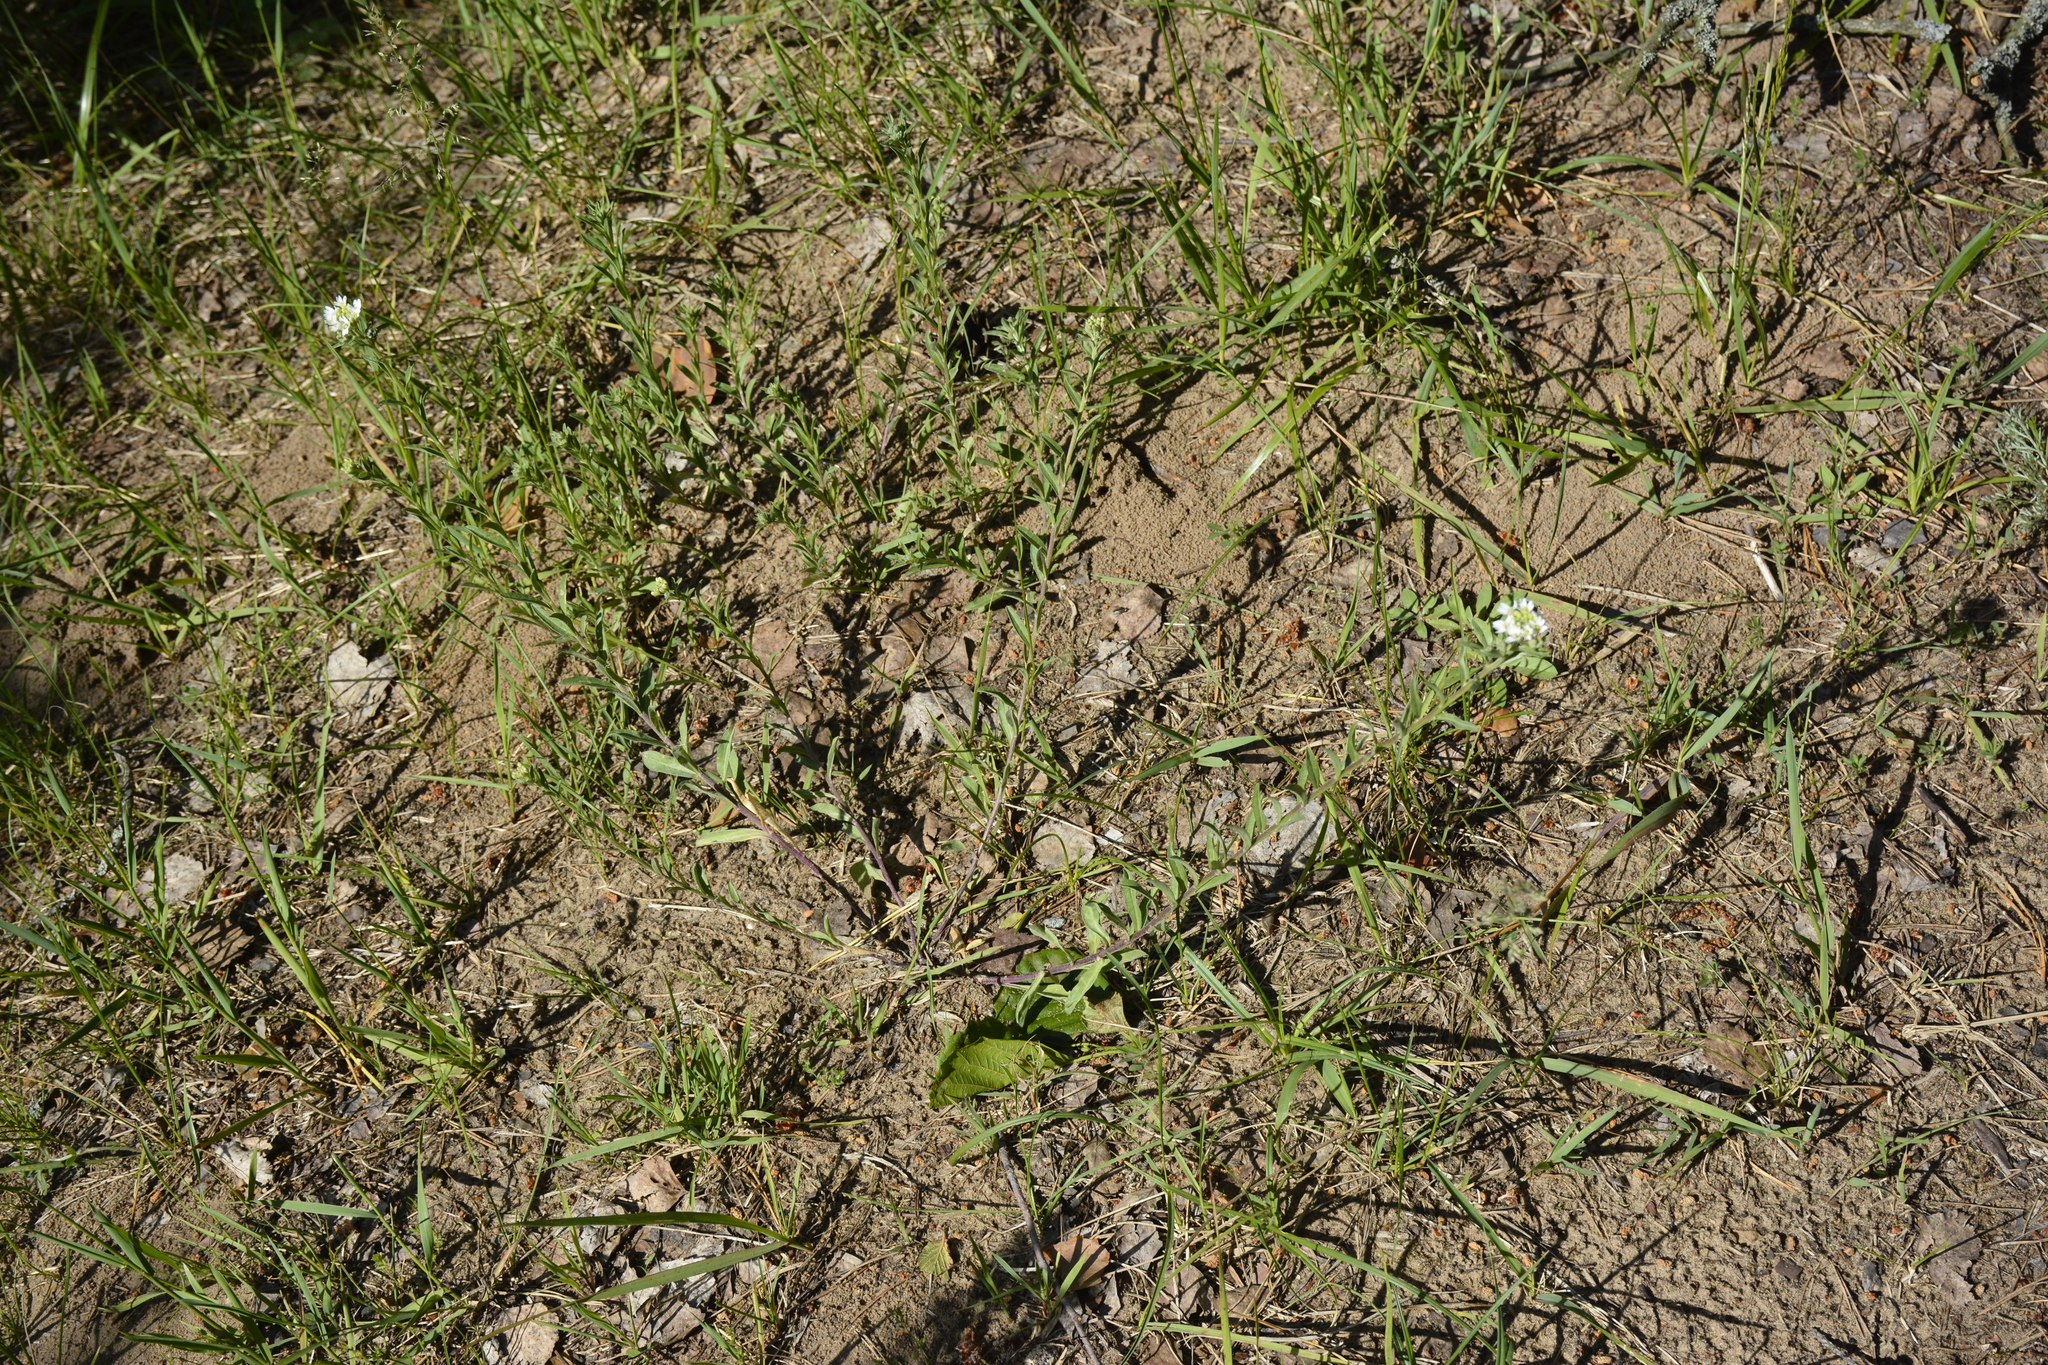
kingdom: Plantae
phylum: Tracheophyta
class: Magnoliopsida
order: Brassicales
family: Brassicaceae
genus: Berteroa
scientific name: Berteroa incana
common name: Hoary alison
